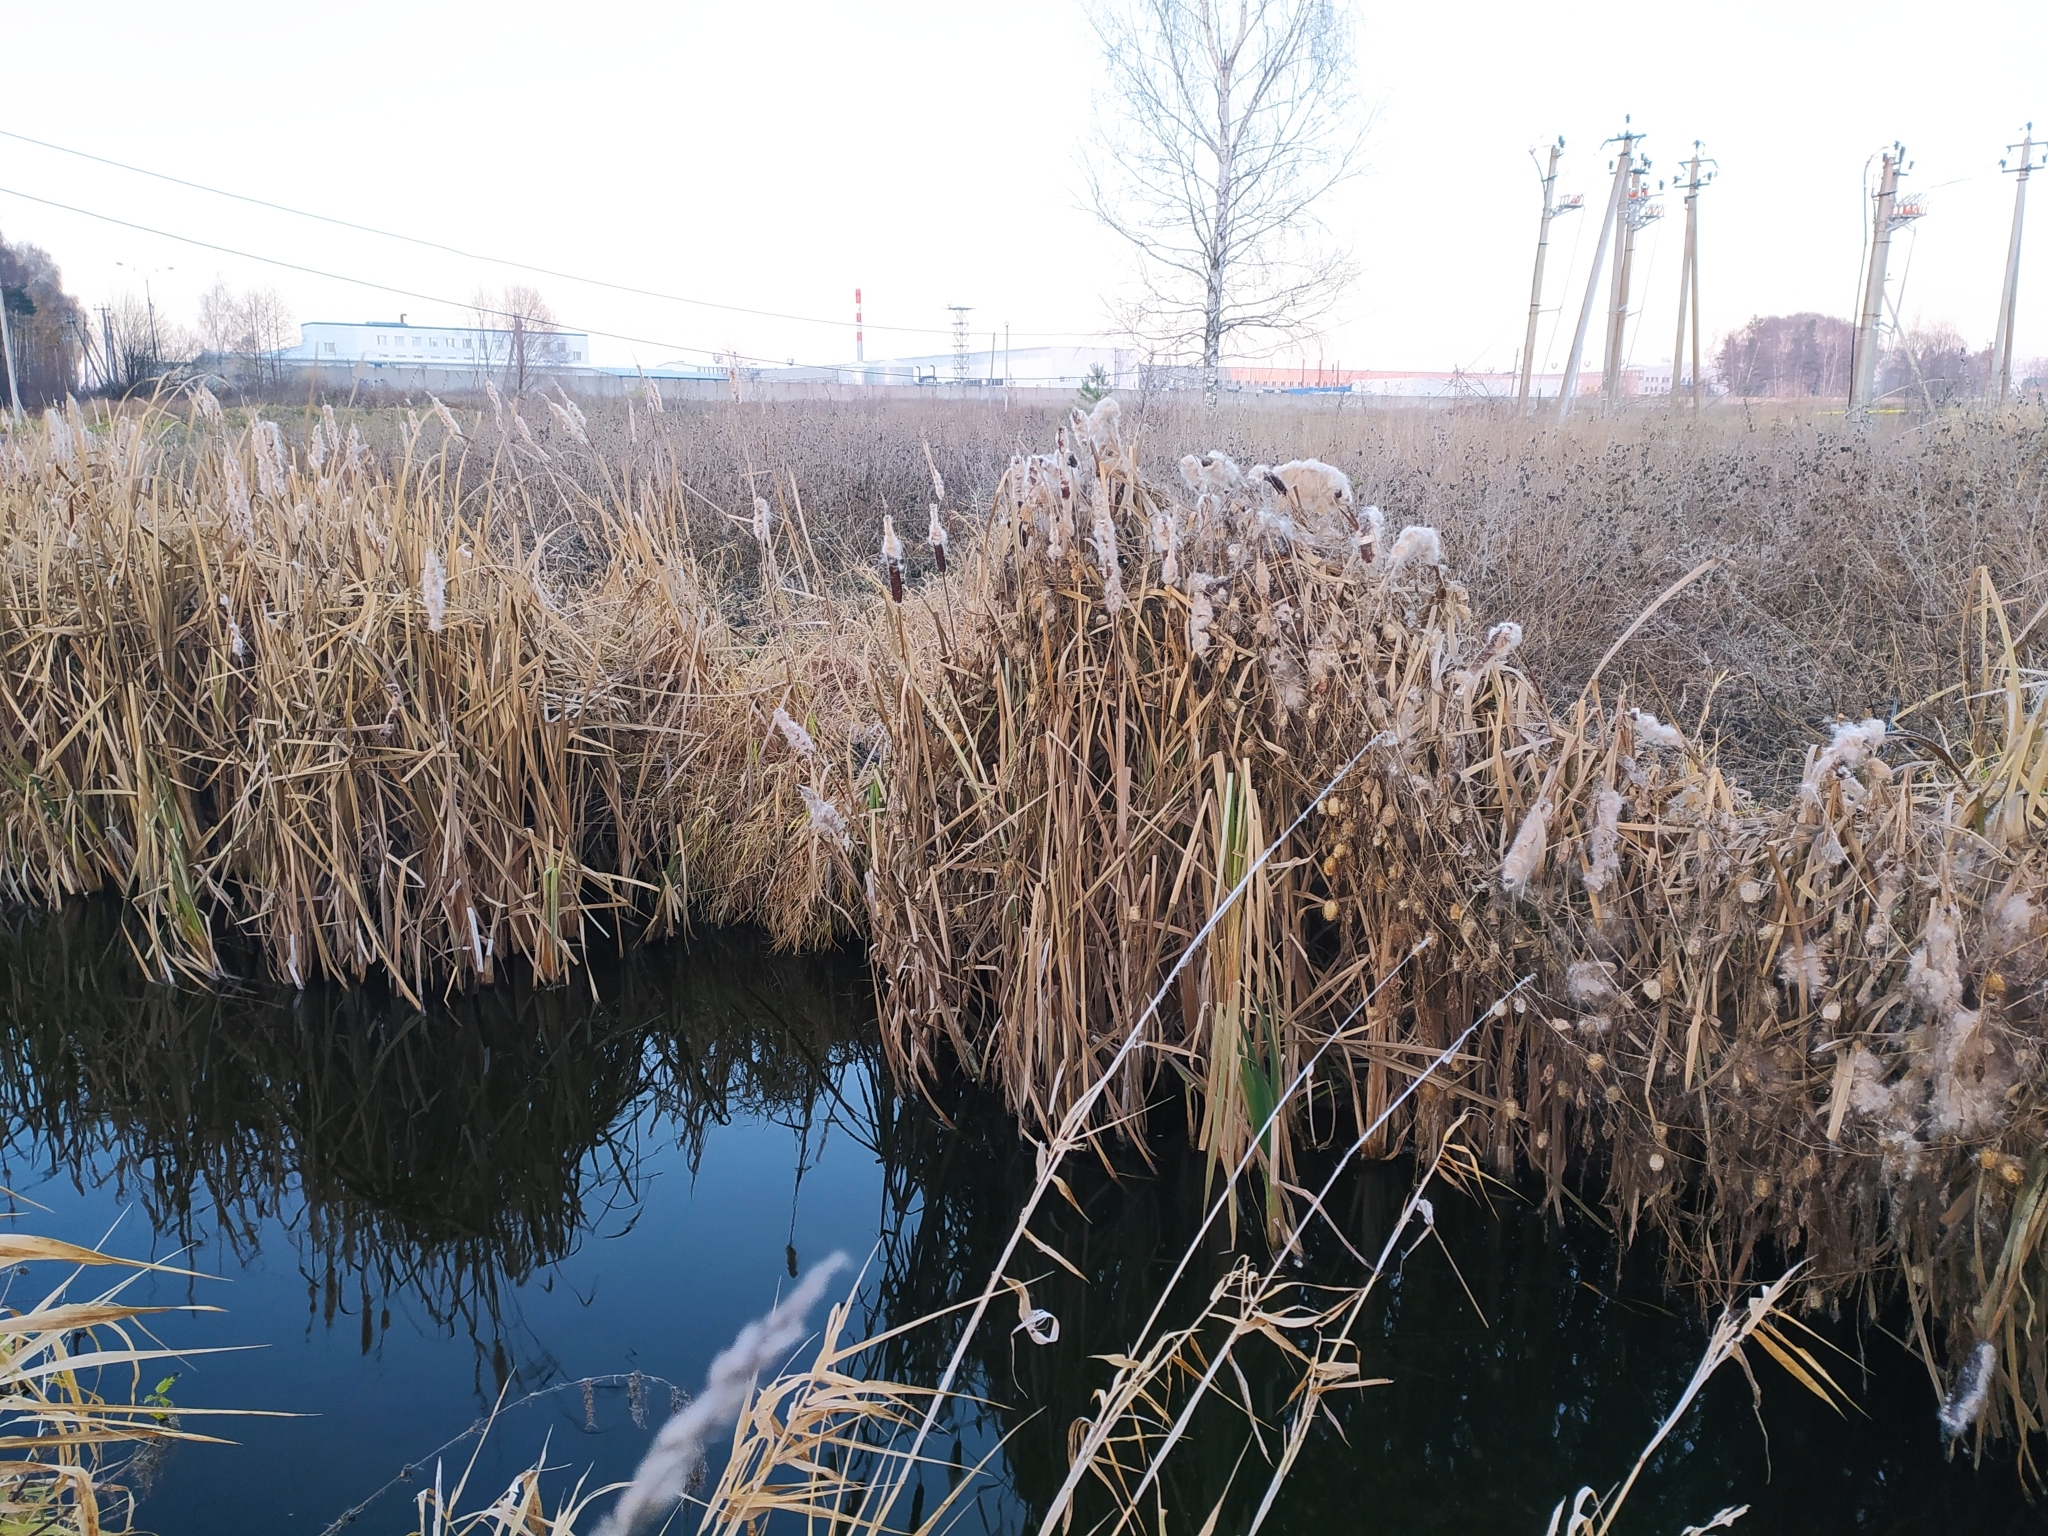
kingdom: Plantae
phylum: Tracheophyta
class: Liliopsida
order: Poales
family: Typhaceae
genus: Typha
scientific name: Typha latifolia
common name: Broadleaf cattail
